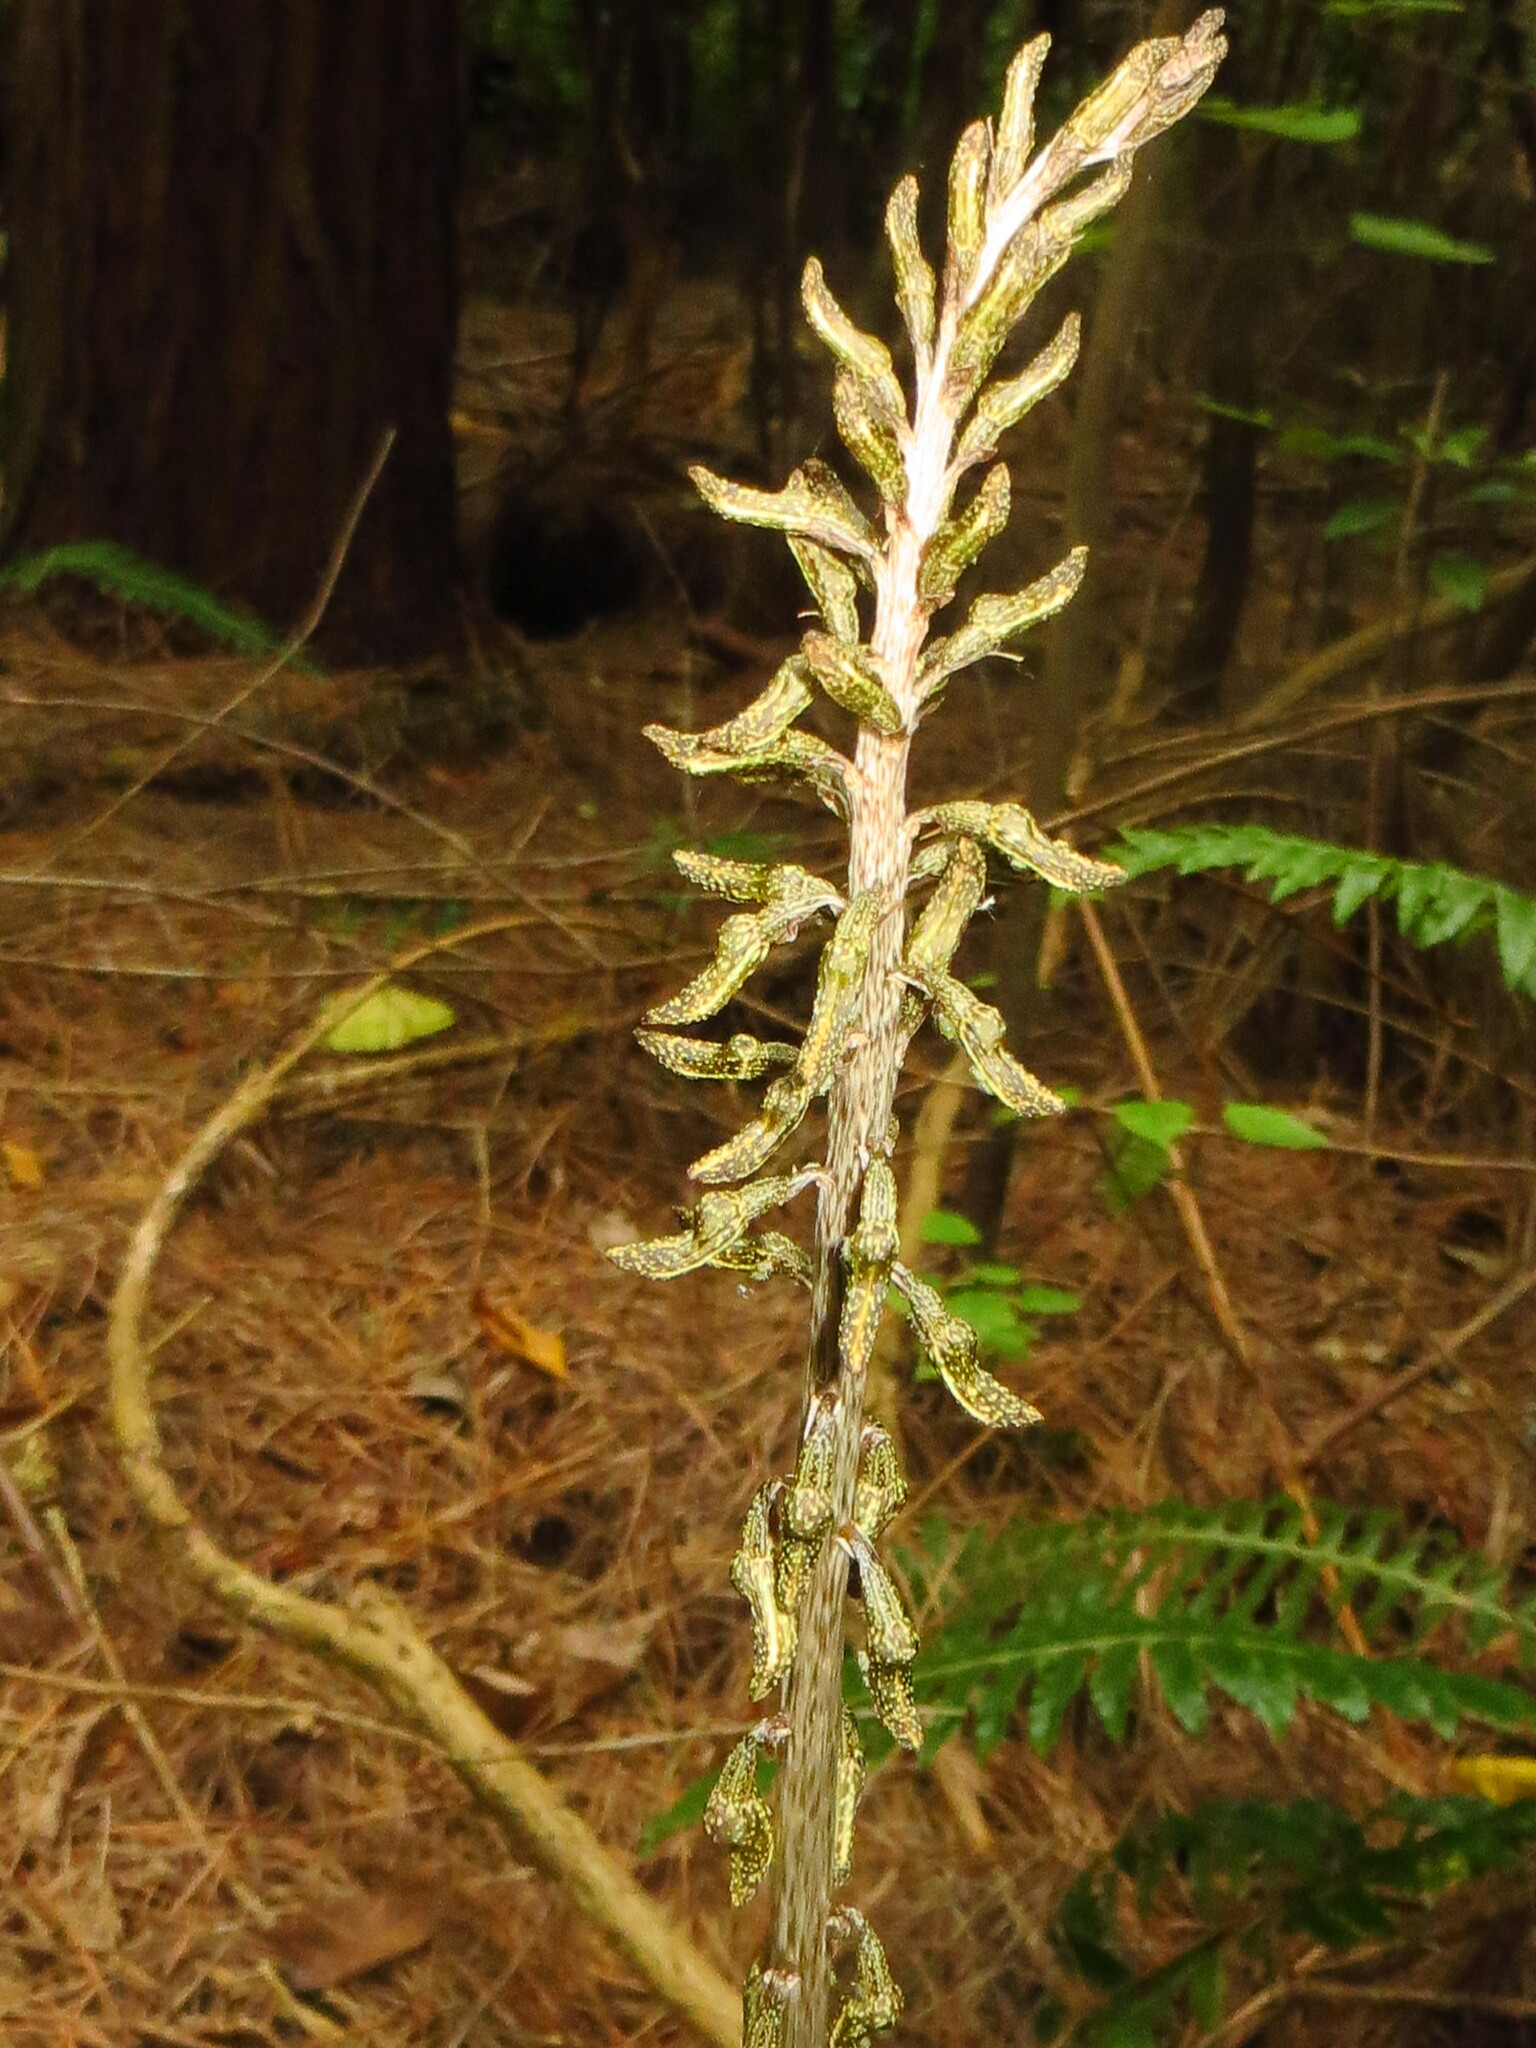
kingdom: Plantae
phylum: Tracheophyta
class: Liliopsida
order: Asparagales
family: Orchidaceae
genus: Gastrodia
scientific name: Gastrodia molloyi
